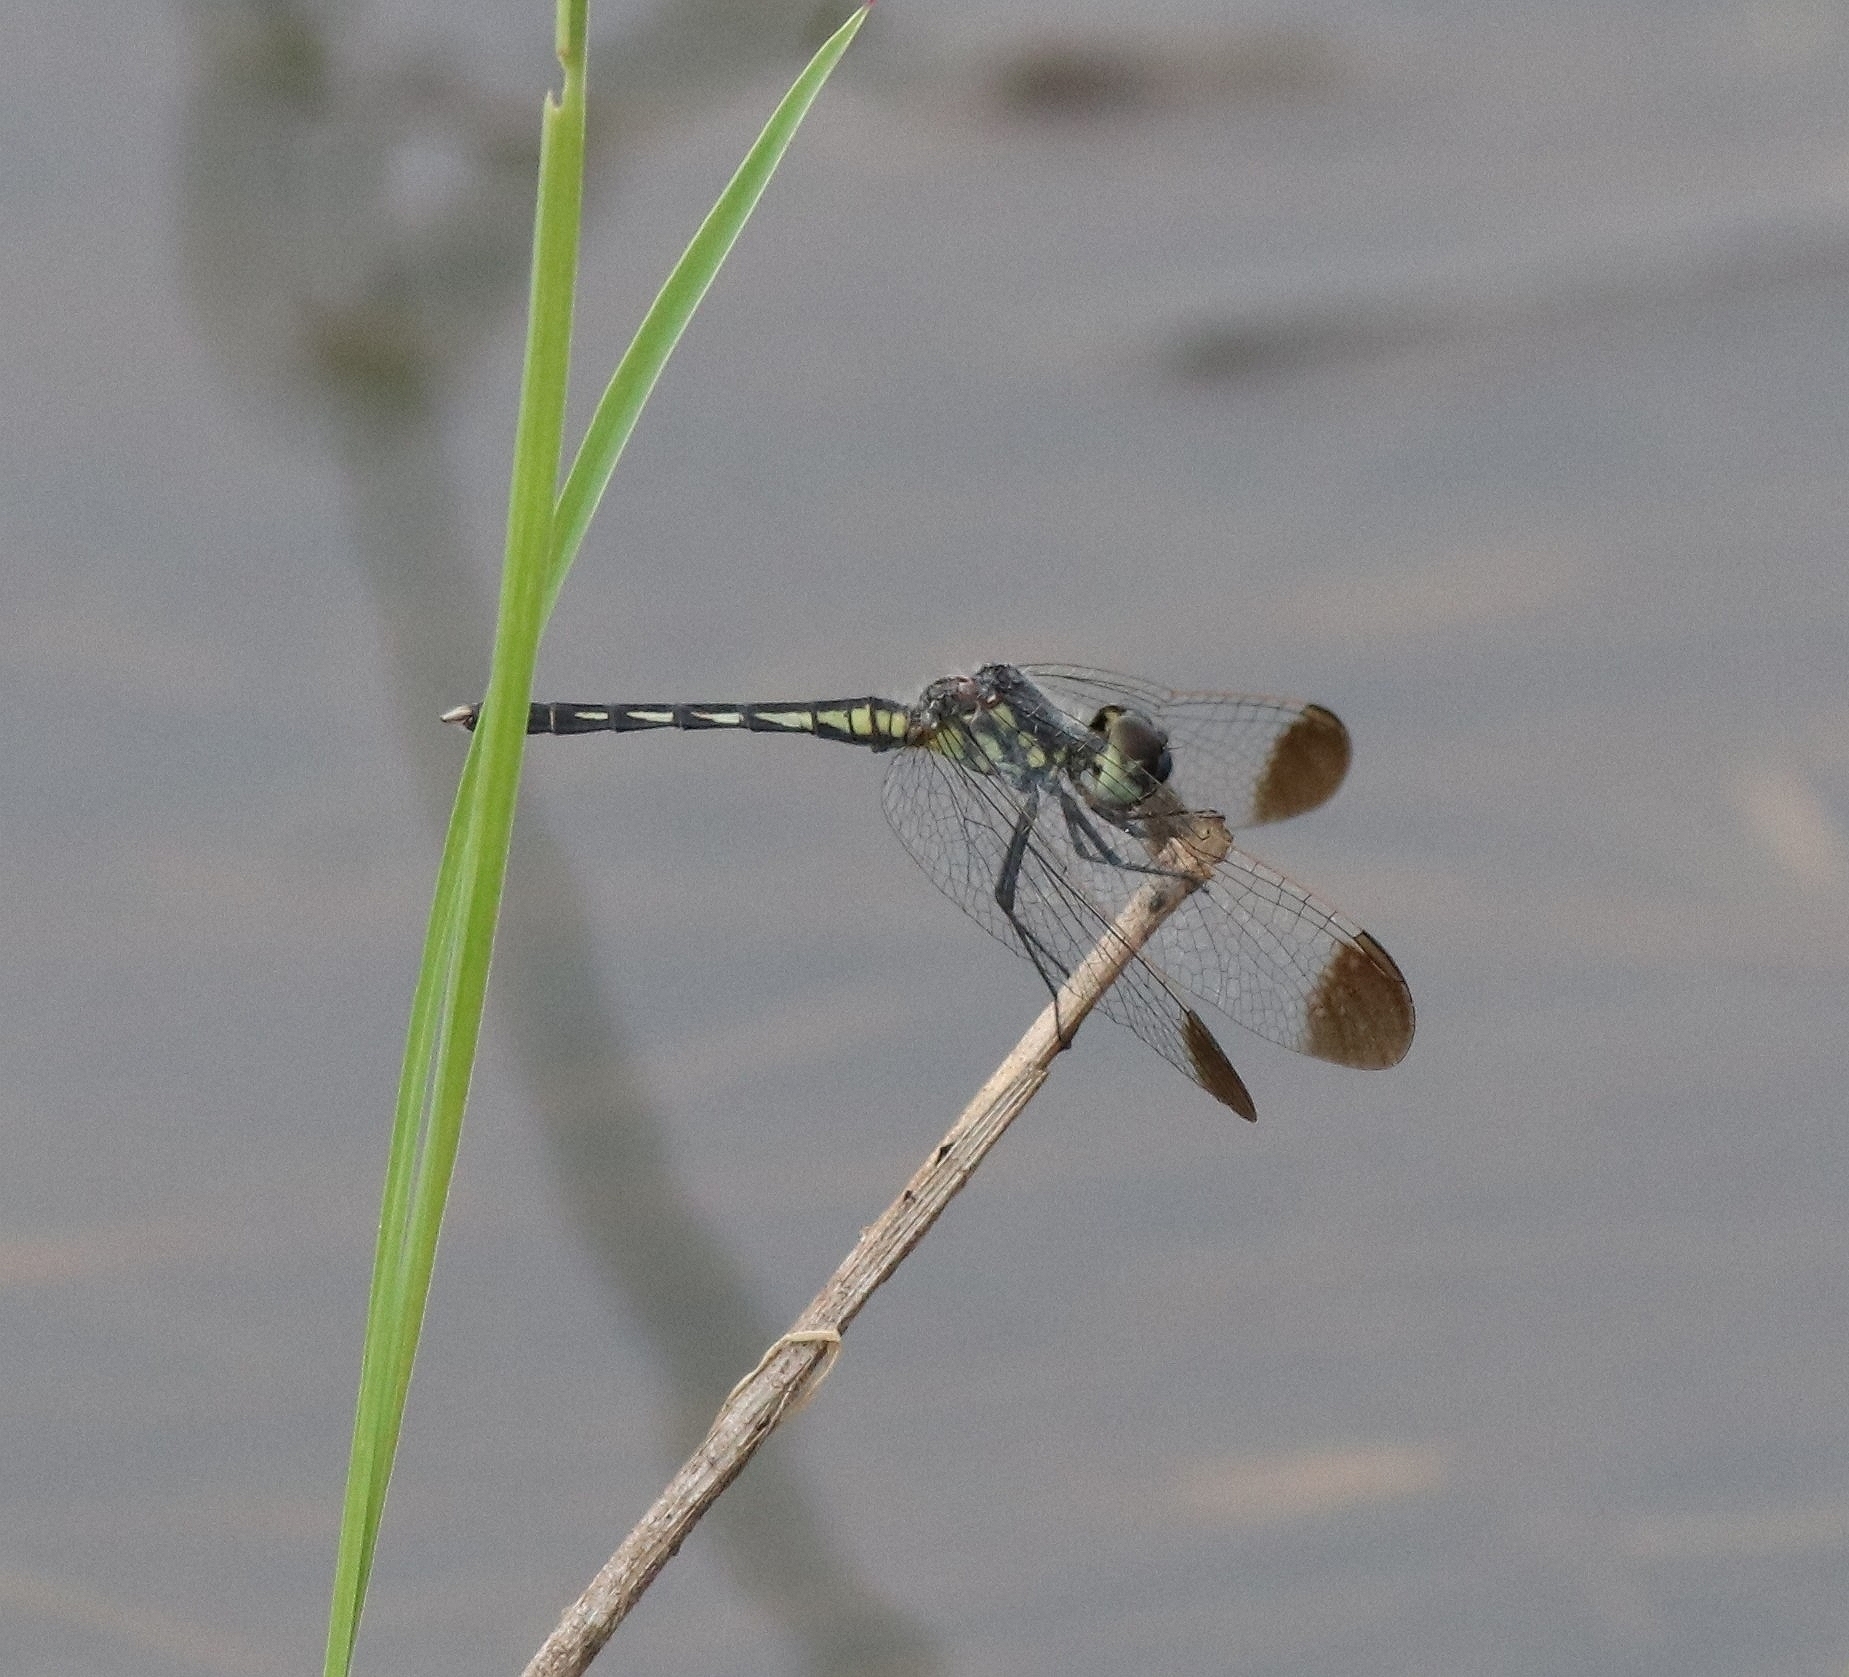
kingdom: Animalia
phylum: Arthropoda
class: Insecta
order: Odonata
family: Libellulidae
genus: Diplacodes
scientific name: Diplacodes nebulosa
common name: Black-tipped percher
